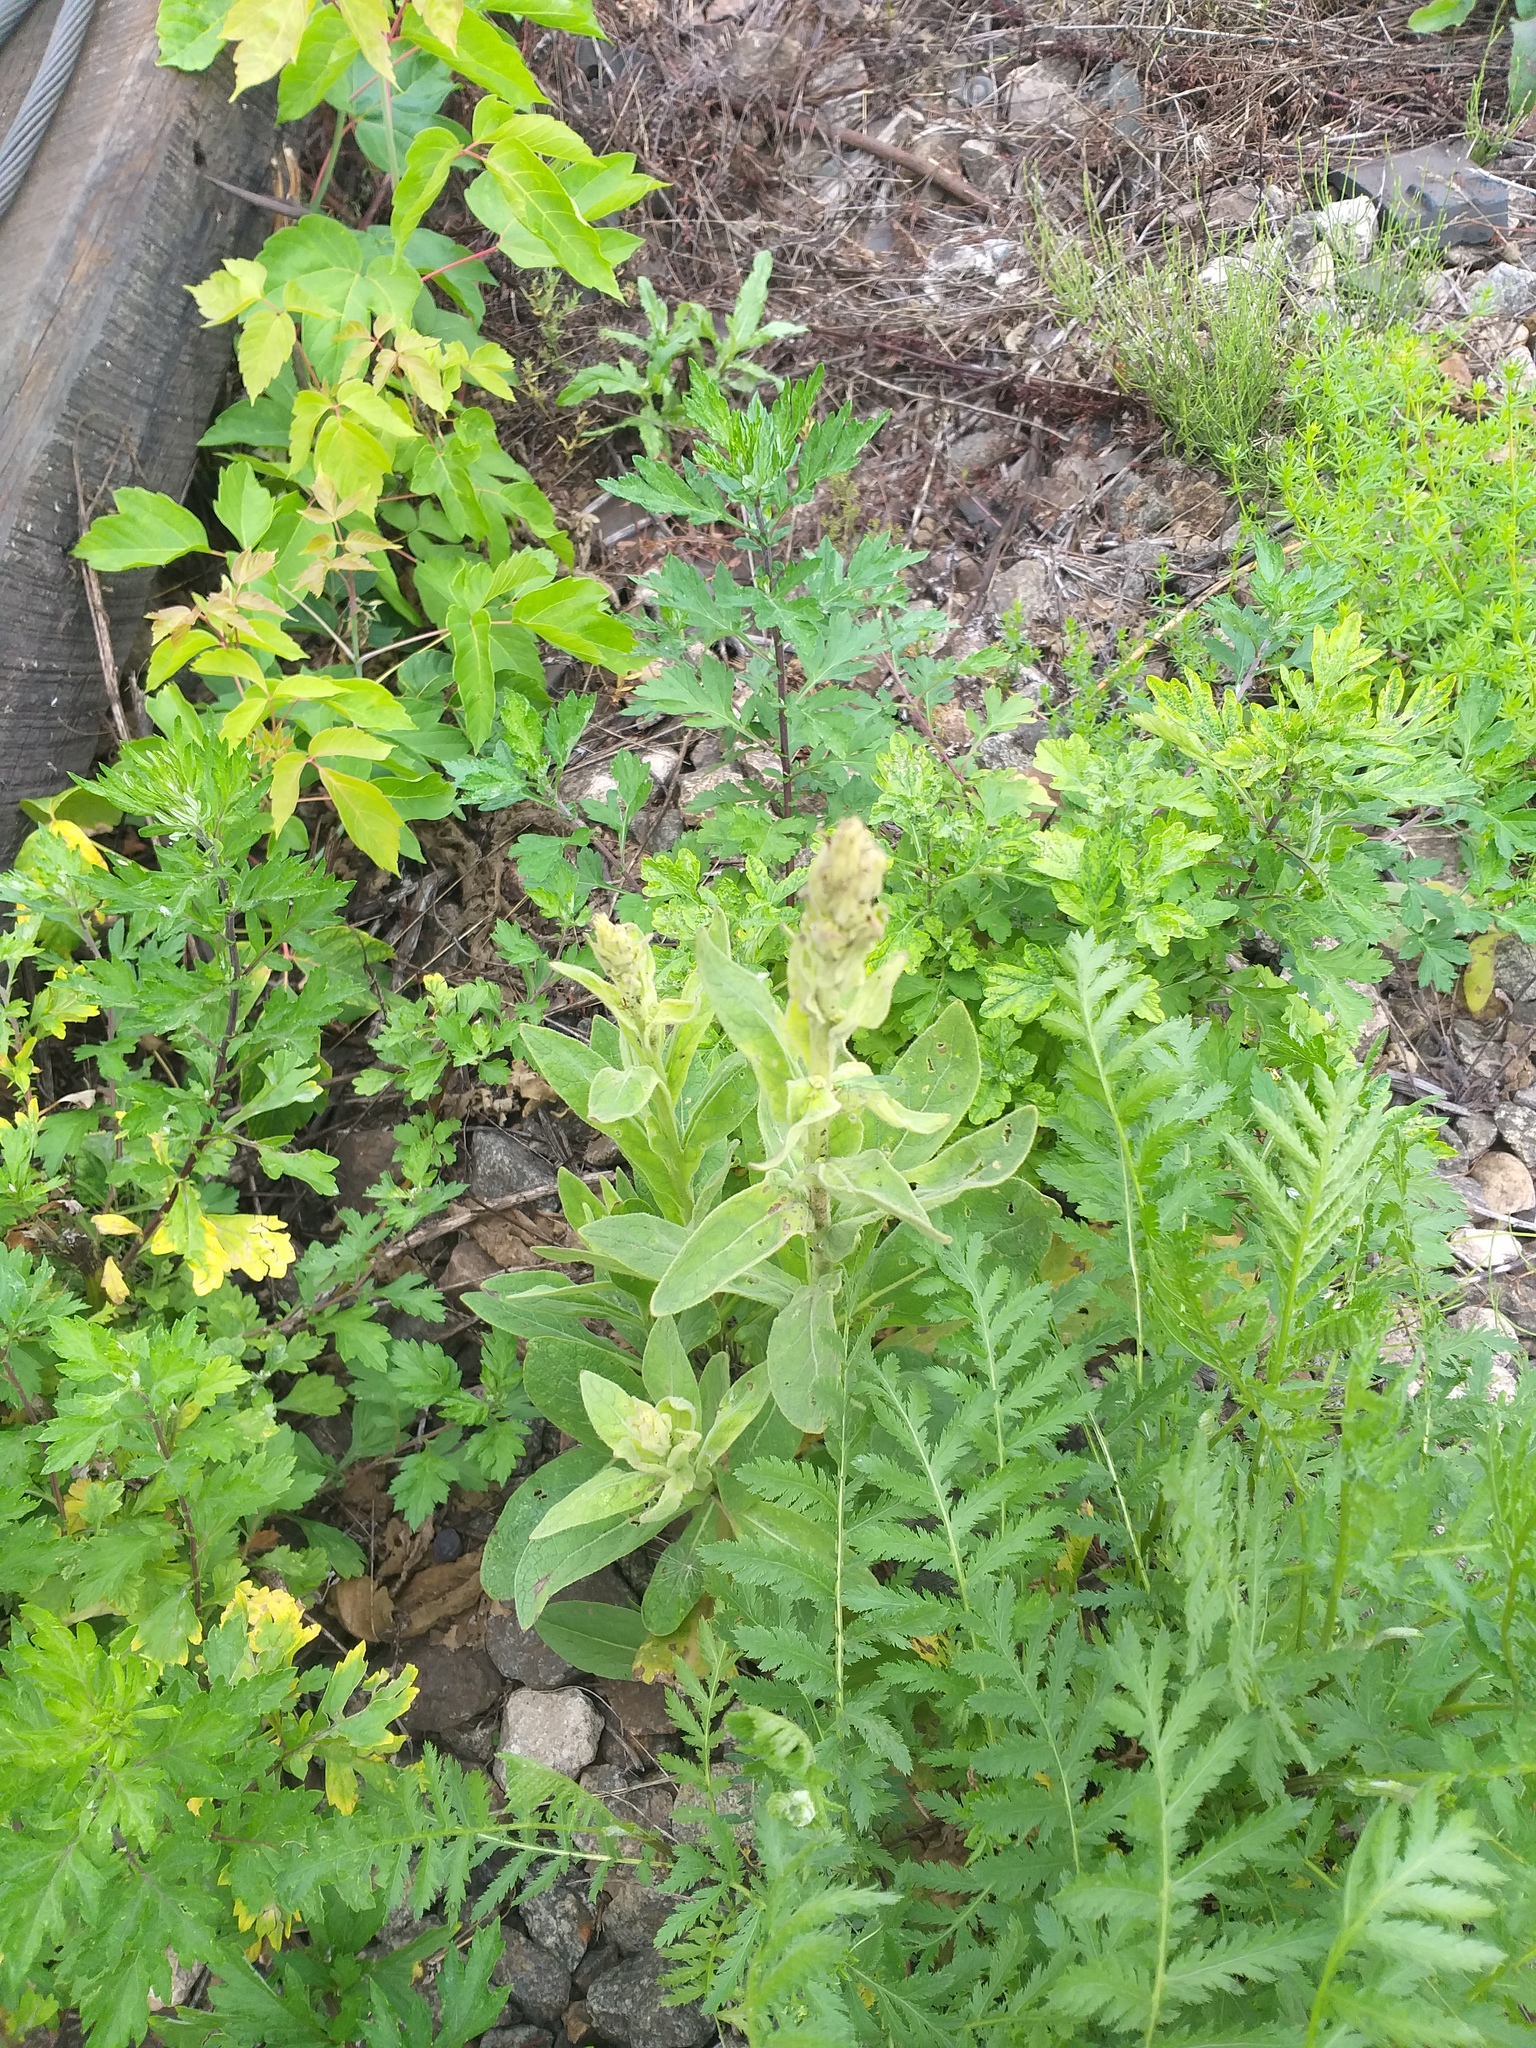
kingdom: Plantae
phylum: Tracheophyta
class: Magnoliopsida
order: Lamiales
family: Scrophulariaceae
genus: Verbascum
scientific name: Verbascum thapsus
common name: Common mullein
